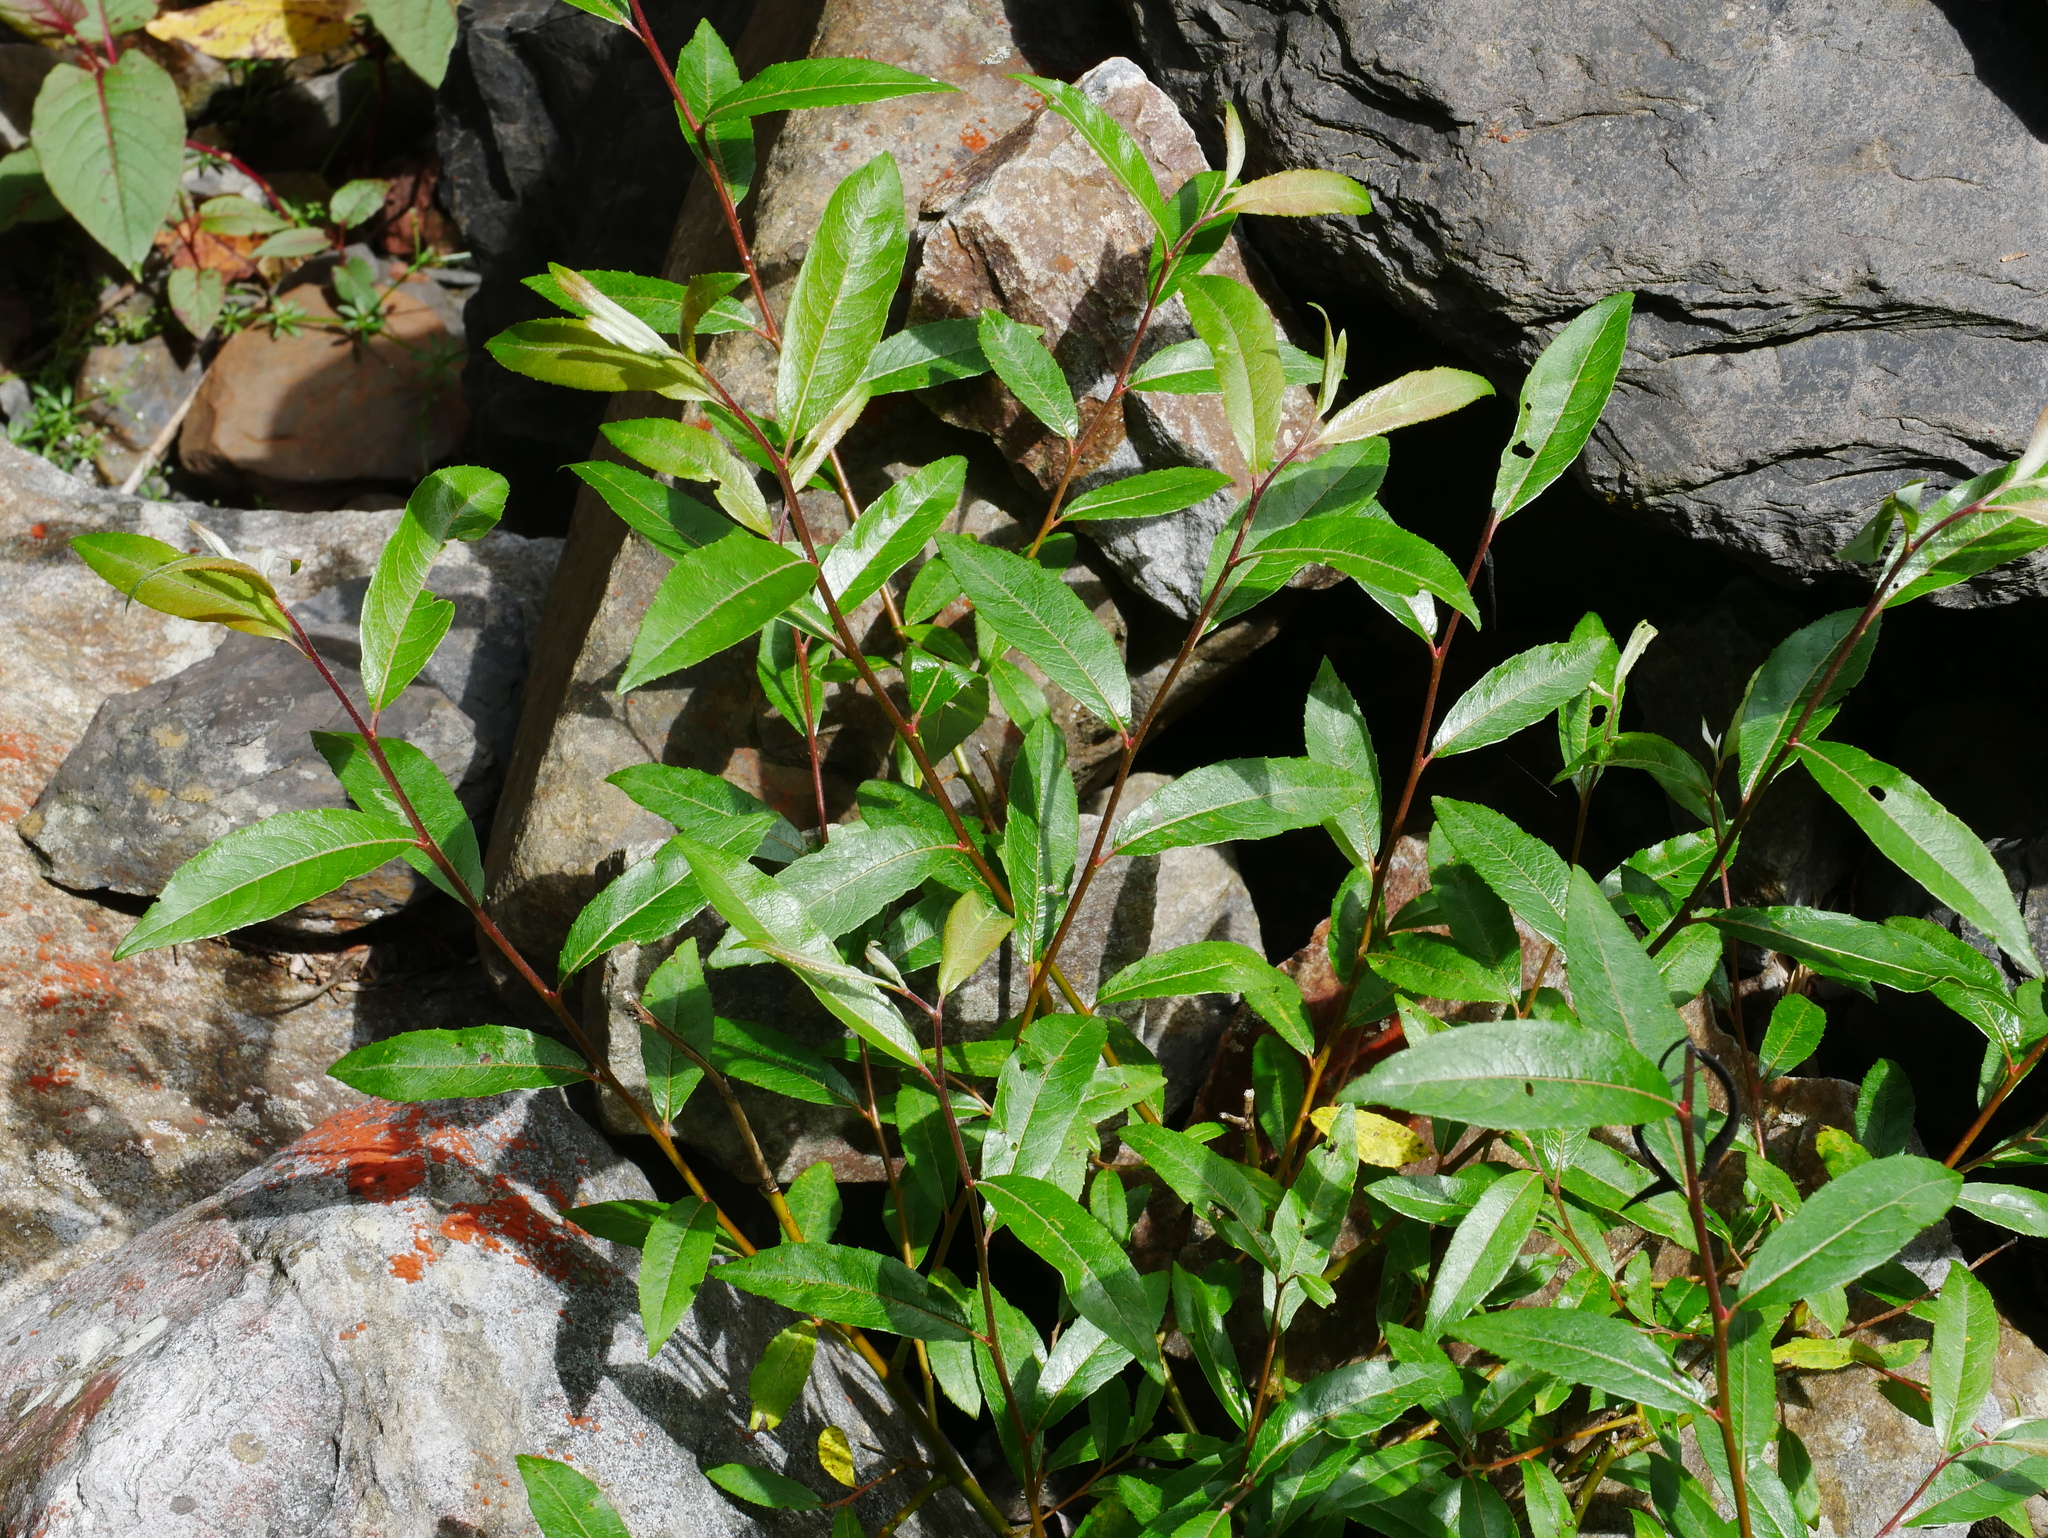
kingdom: Plantae
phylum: Tracheophyta
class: Magnoliopsida
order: Malpighiales
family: Salicaceae
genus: Salix
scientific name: Salix fulvopubescens
